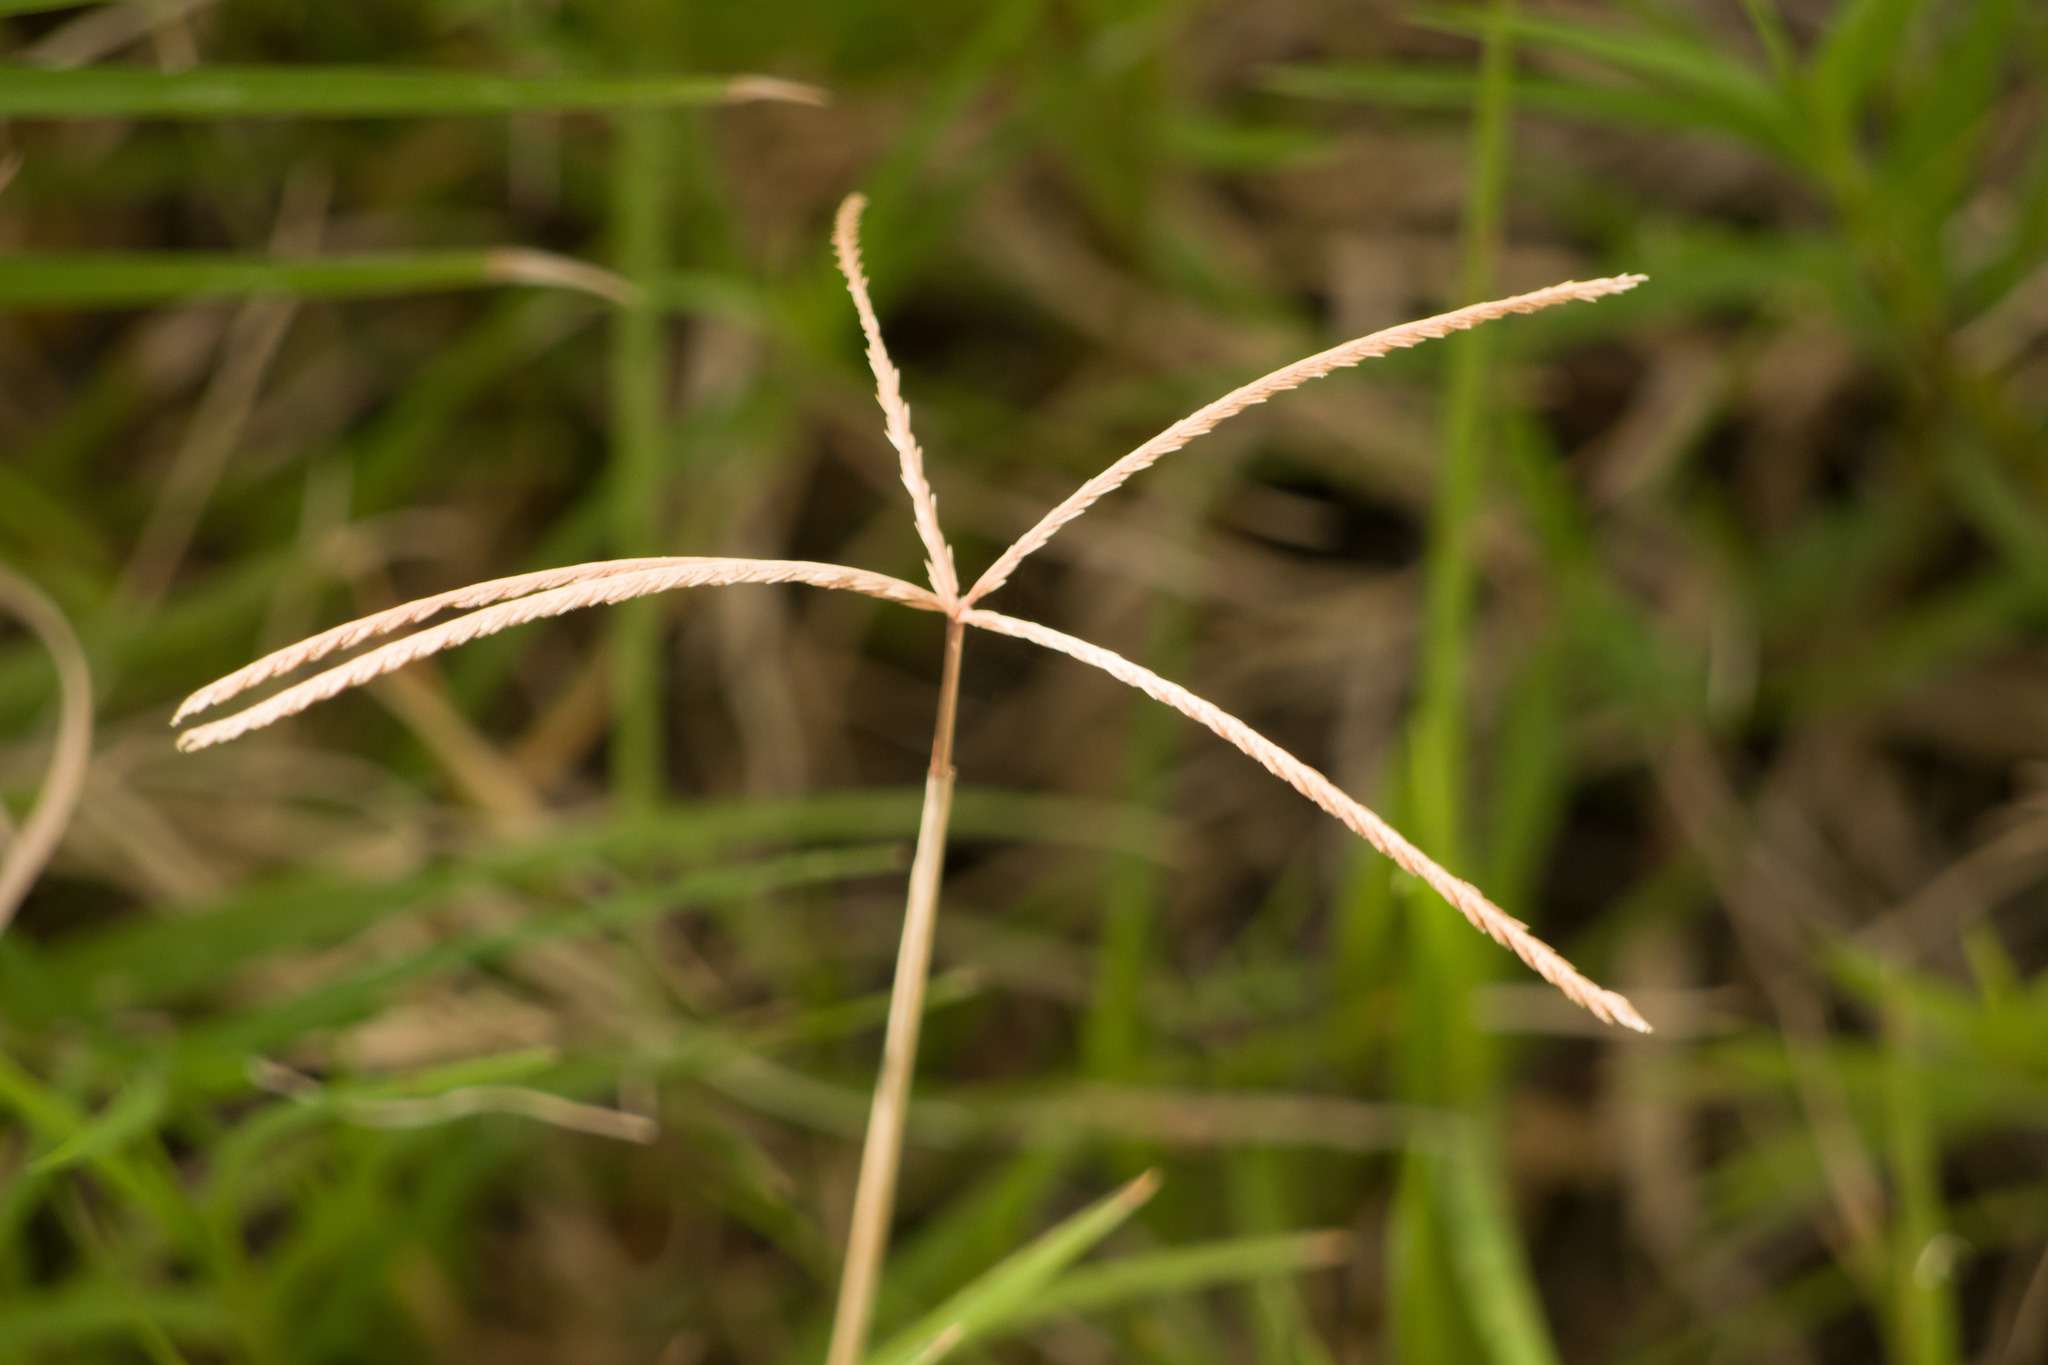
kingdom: Plantae
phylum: Tracheophyta
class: Liliopsida
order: Poales
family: Poaceae
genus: Cynodon
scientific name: Cynodon dactylon
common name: Bermuda grass
